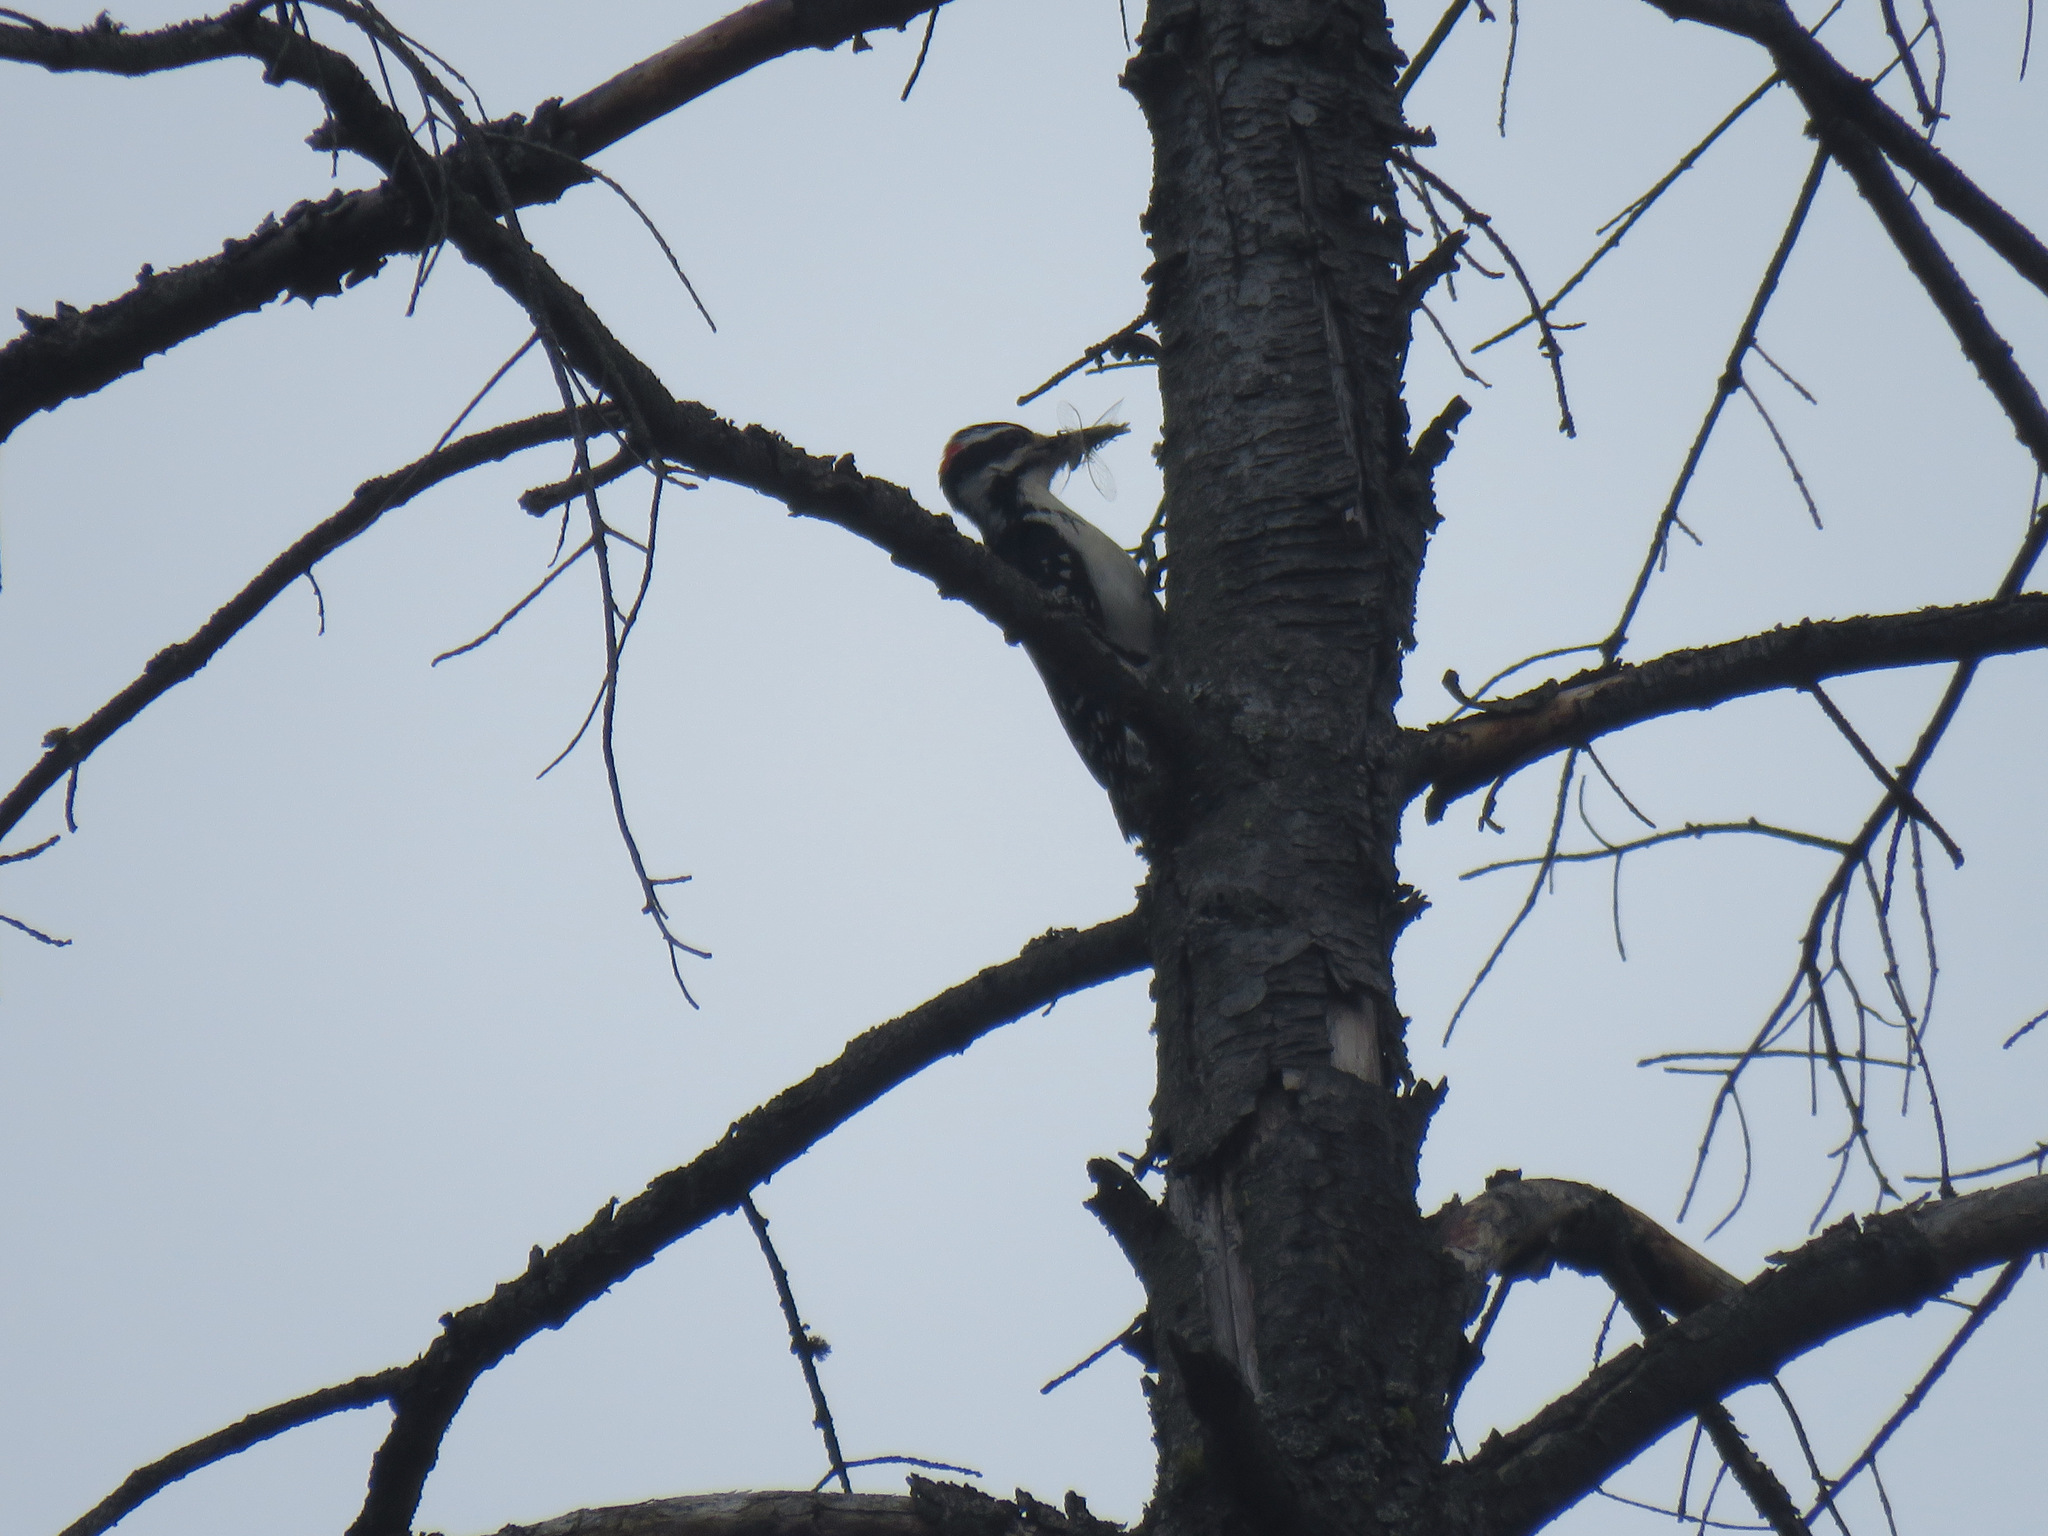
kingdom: Animalia
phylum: Chordata
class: Aves
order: Piciformes
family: Picidae
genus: Leuconotopicus
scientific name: Leuconotopicus villosus
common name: Hairy woodpecker
